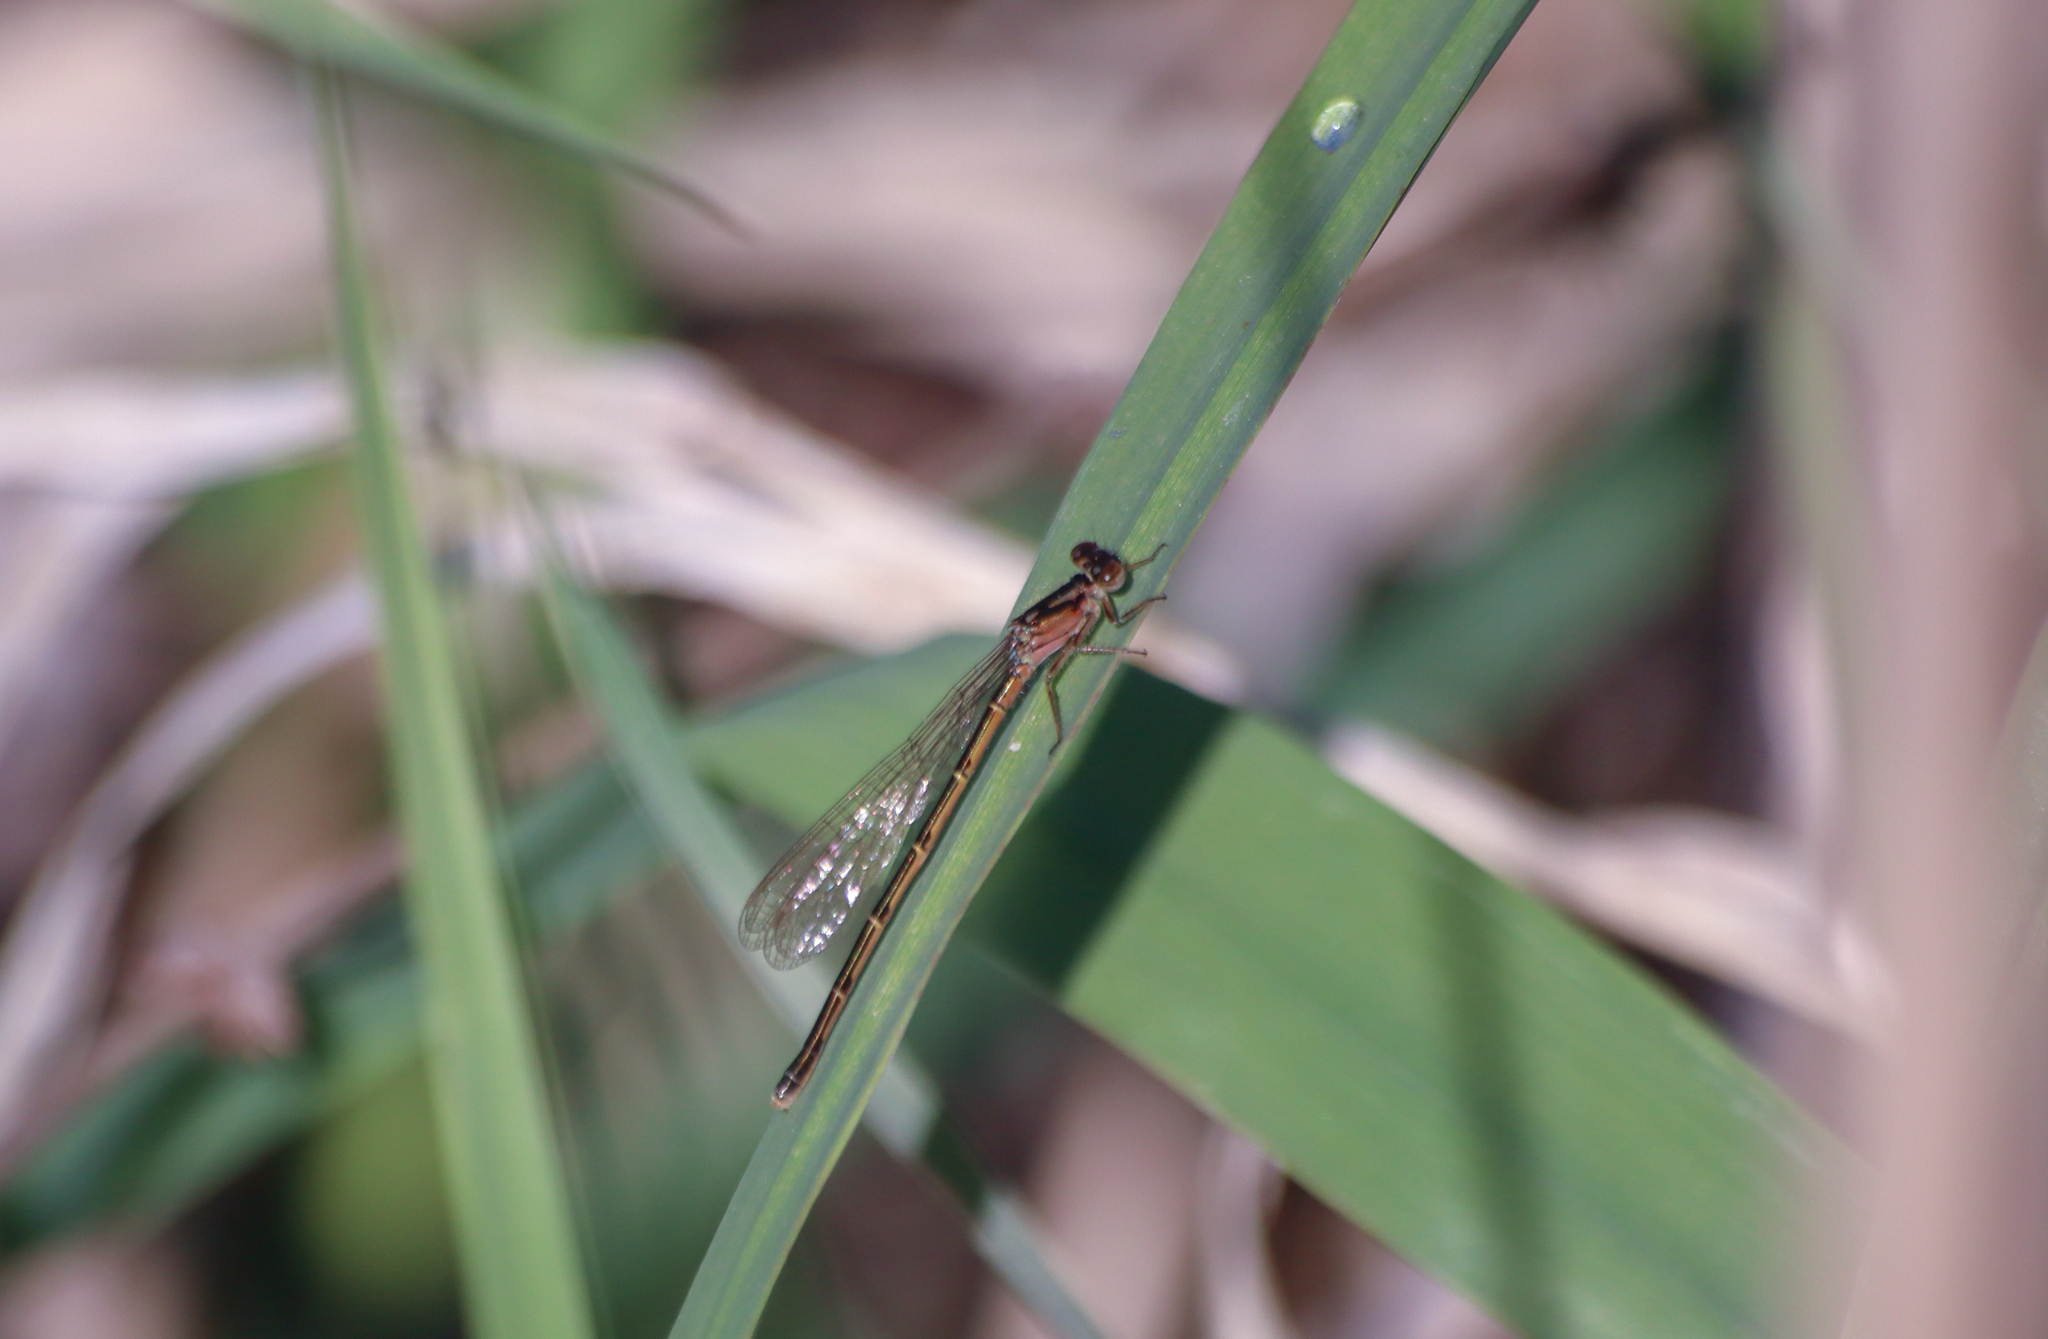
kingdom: Animalia
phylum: Arthropoda
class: Insecta
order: Odonata
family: Coenagrionidae
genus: Ischnura
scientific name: Ischnura posita
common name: Fragile forktail
